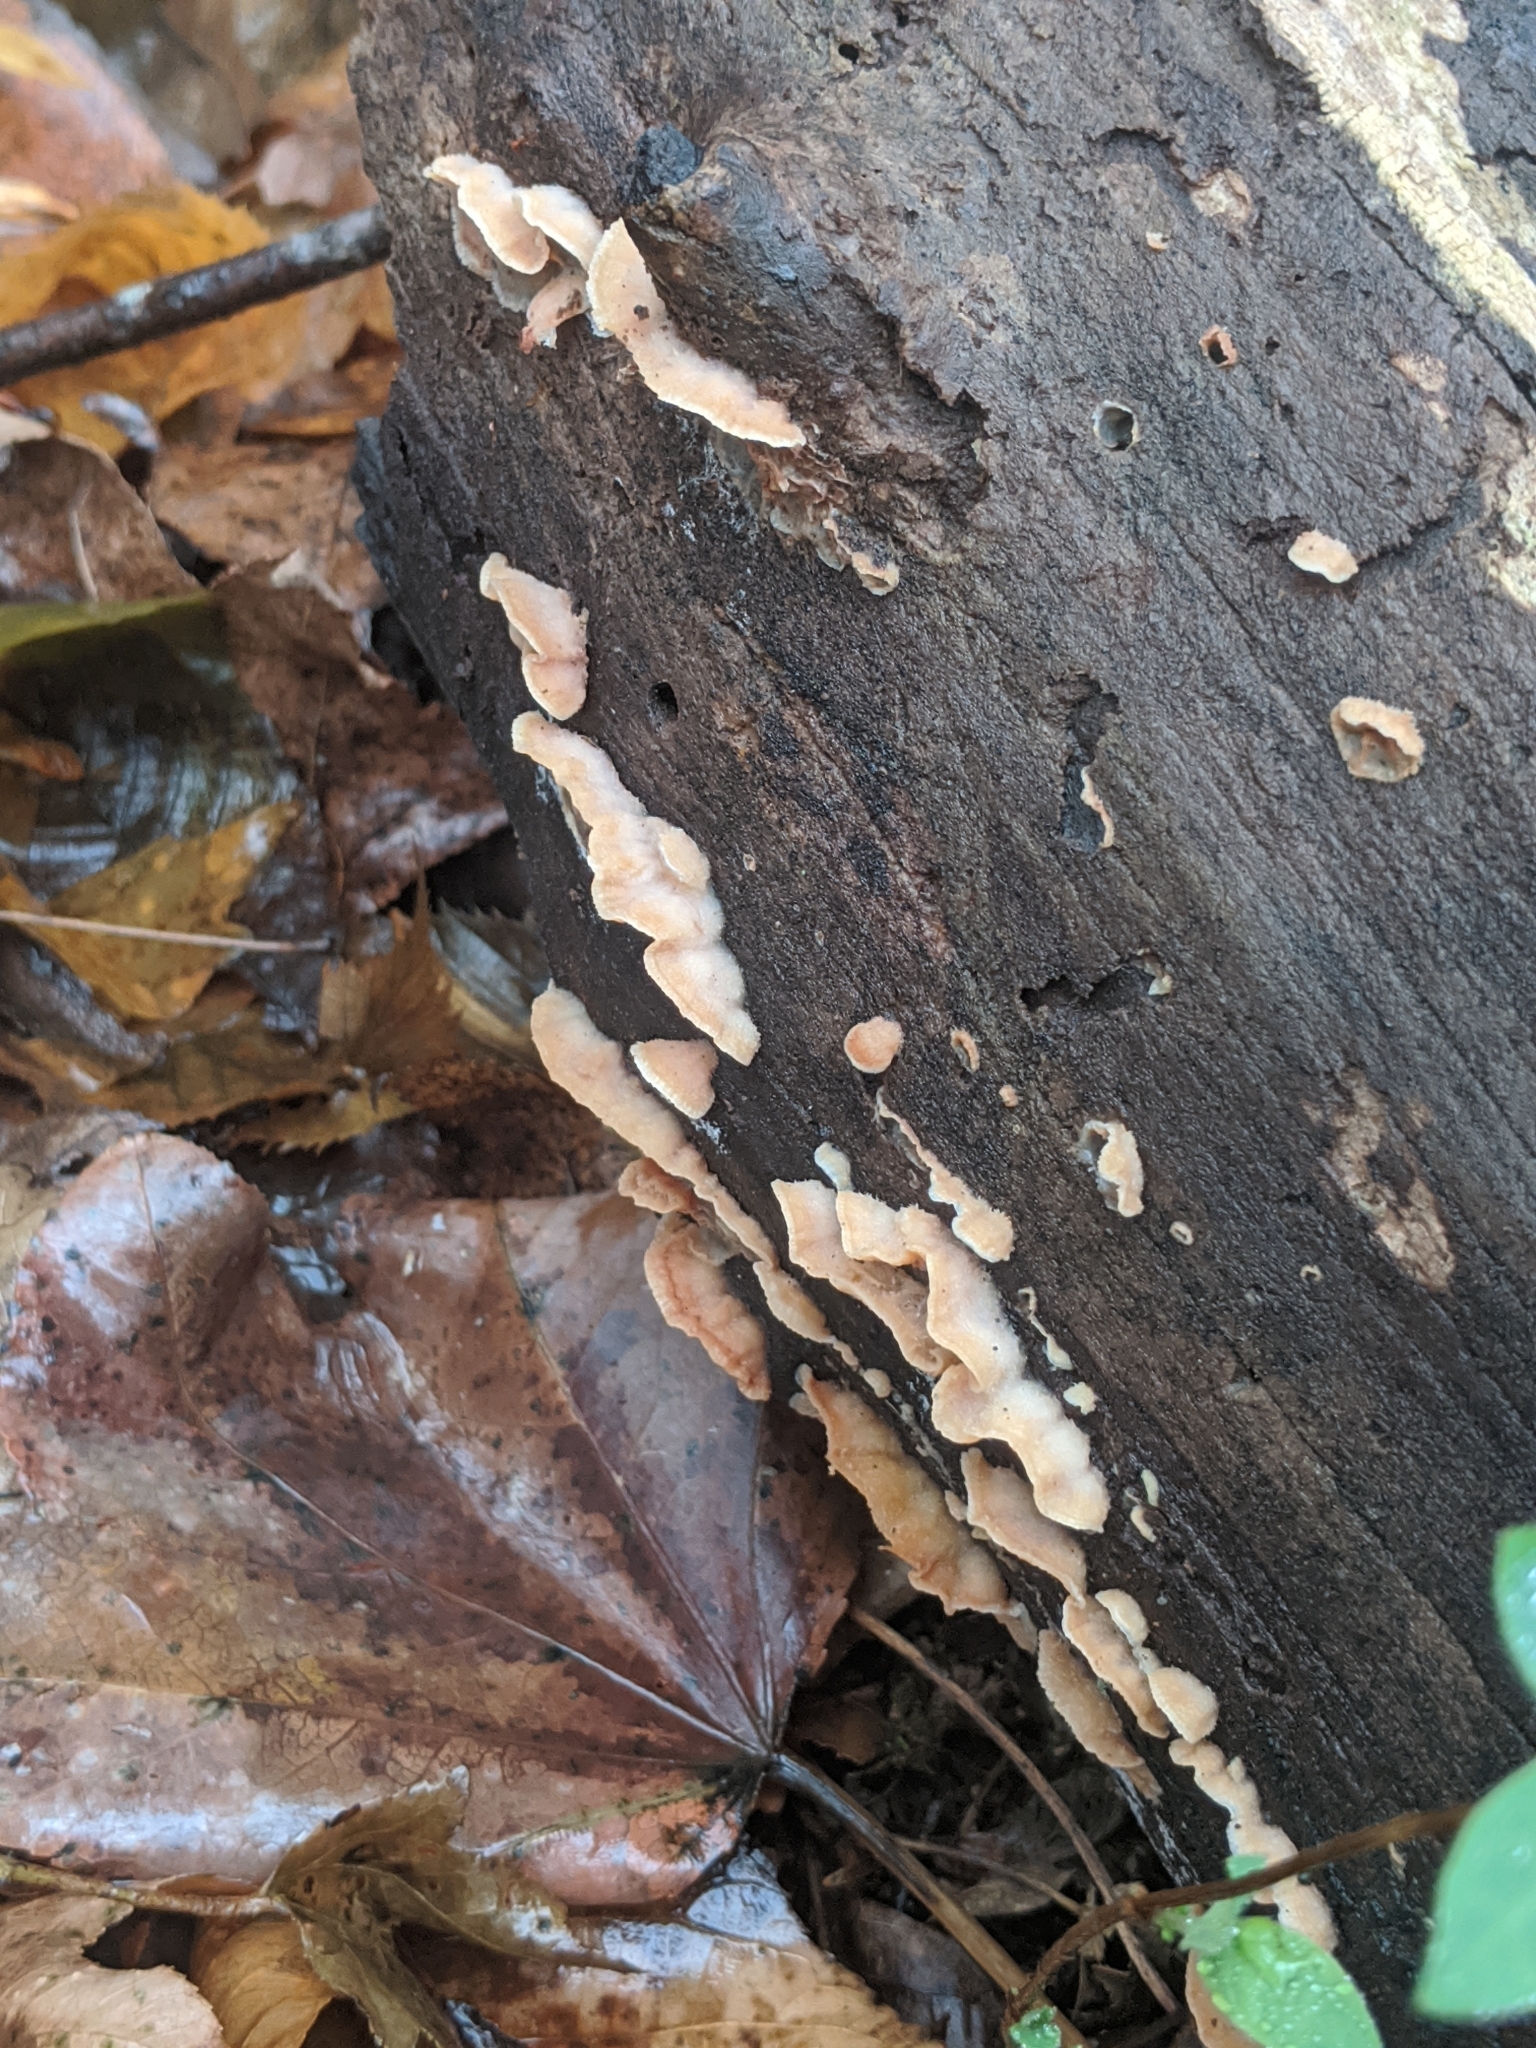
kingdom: Fungi
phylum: Basidiomycota
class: Agaricomycetes
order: Polyporales
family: Meruliaceae
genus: Phlebia
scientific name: Phlebia tremellosa
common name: Jelly rot
